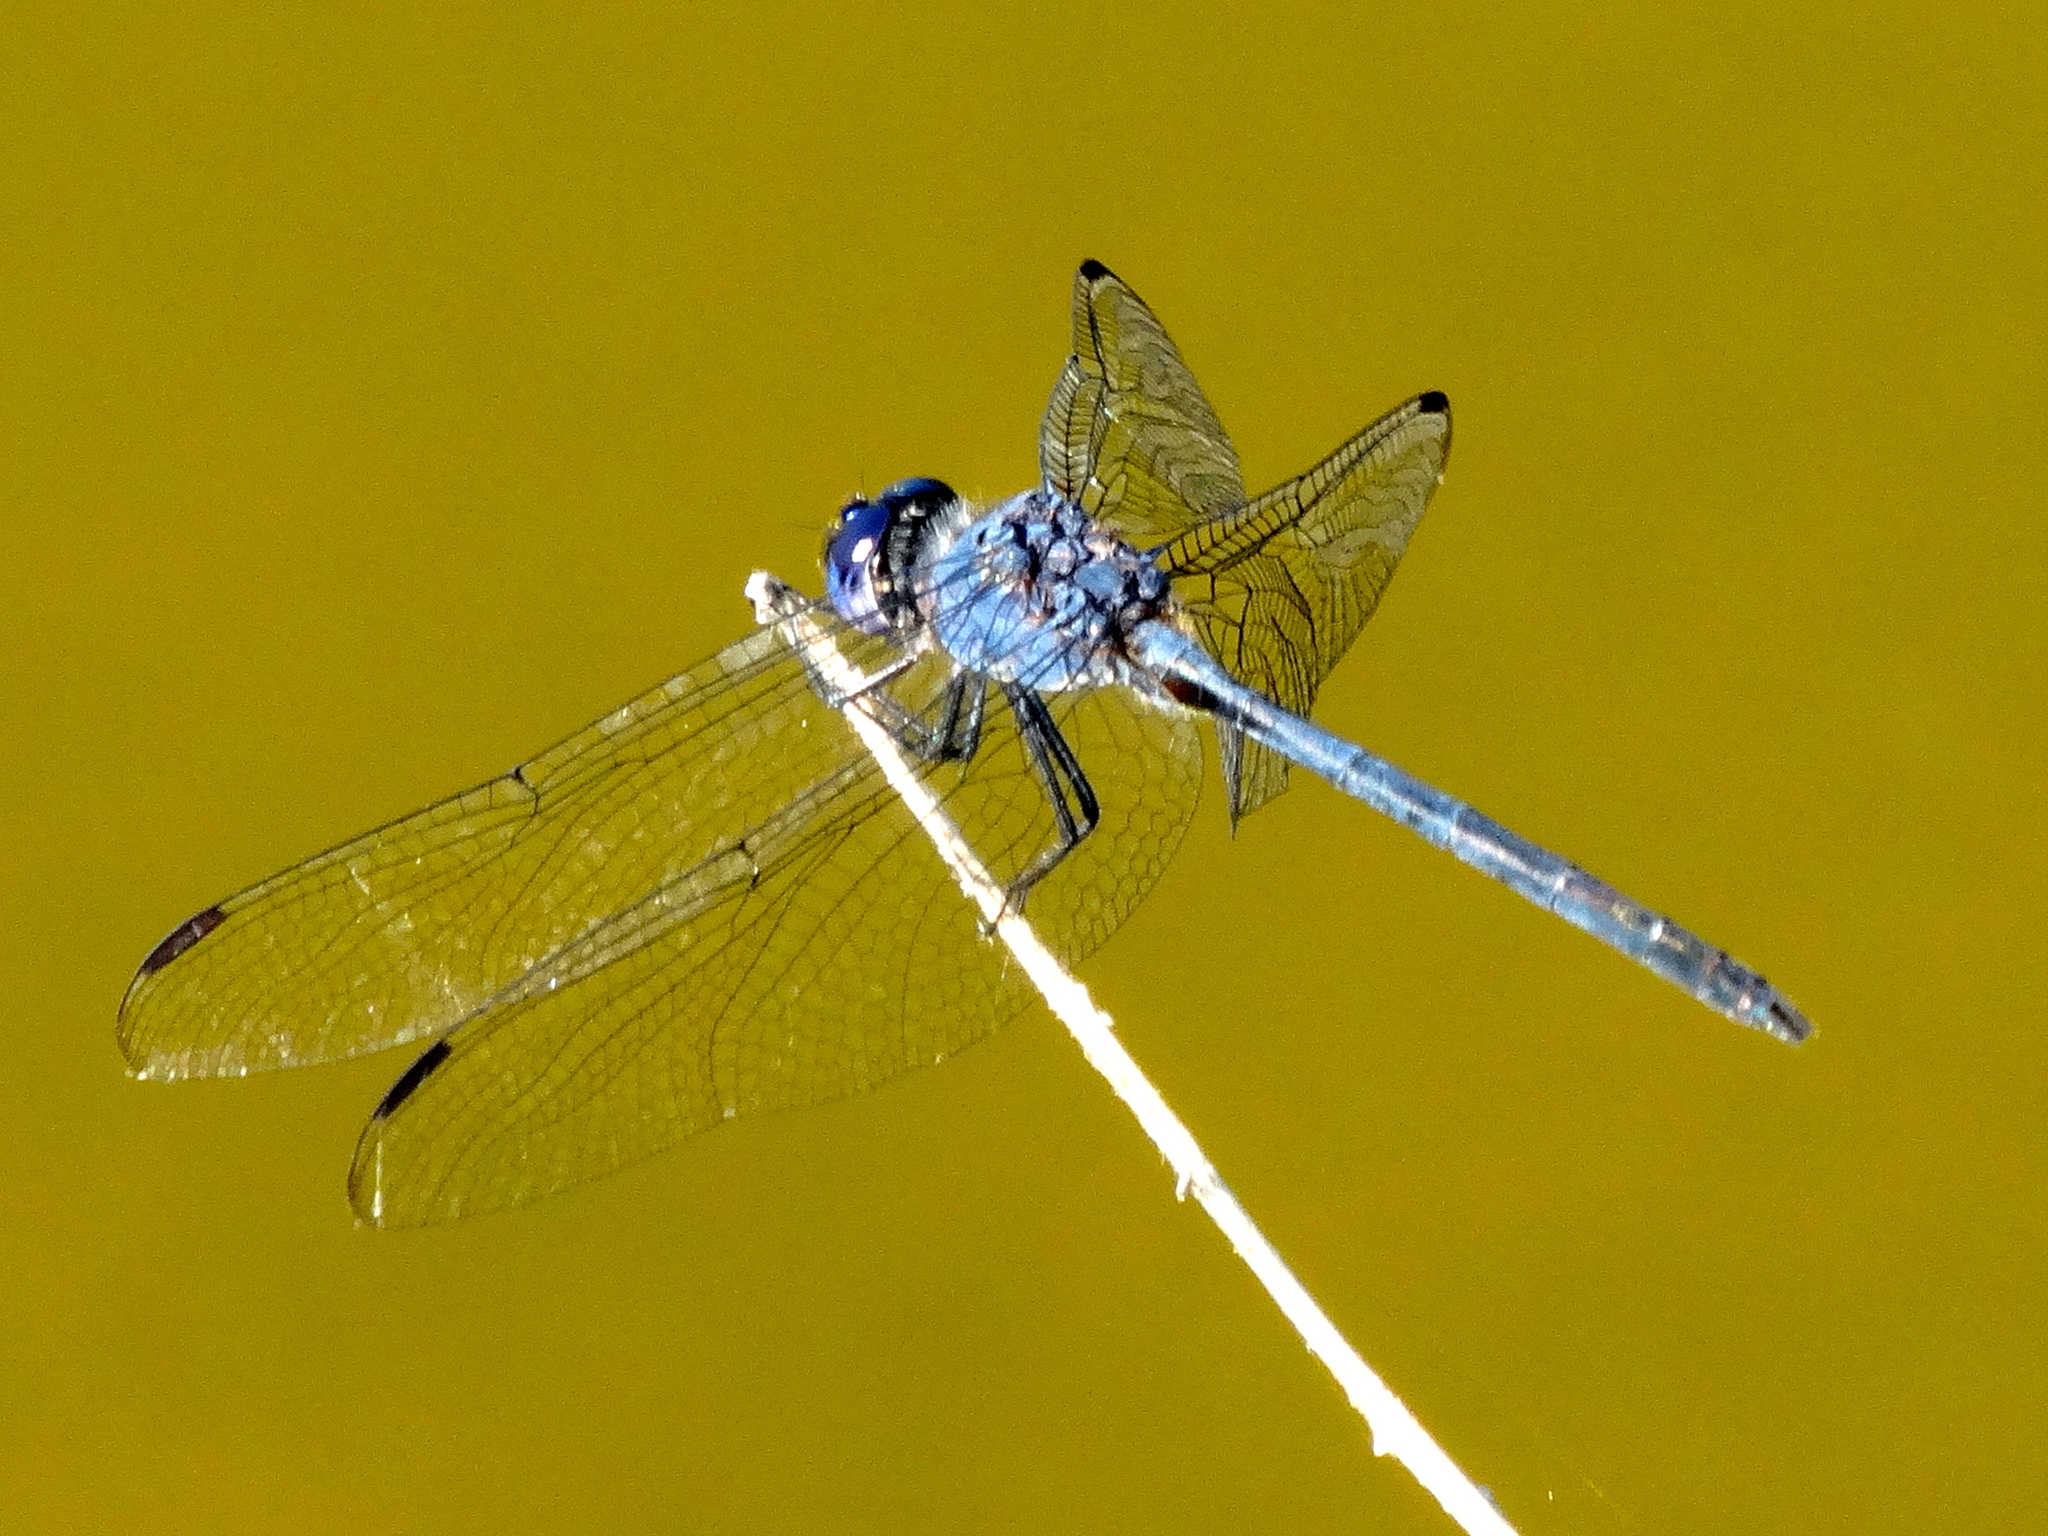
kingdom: Animalia
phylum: Arthropoda
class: Insecta
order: Odonata
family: Libellulidae
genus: Dythemis
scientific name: Dythemis nigrescens
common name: Black setwing
